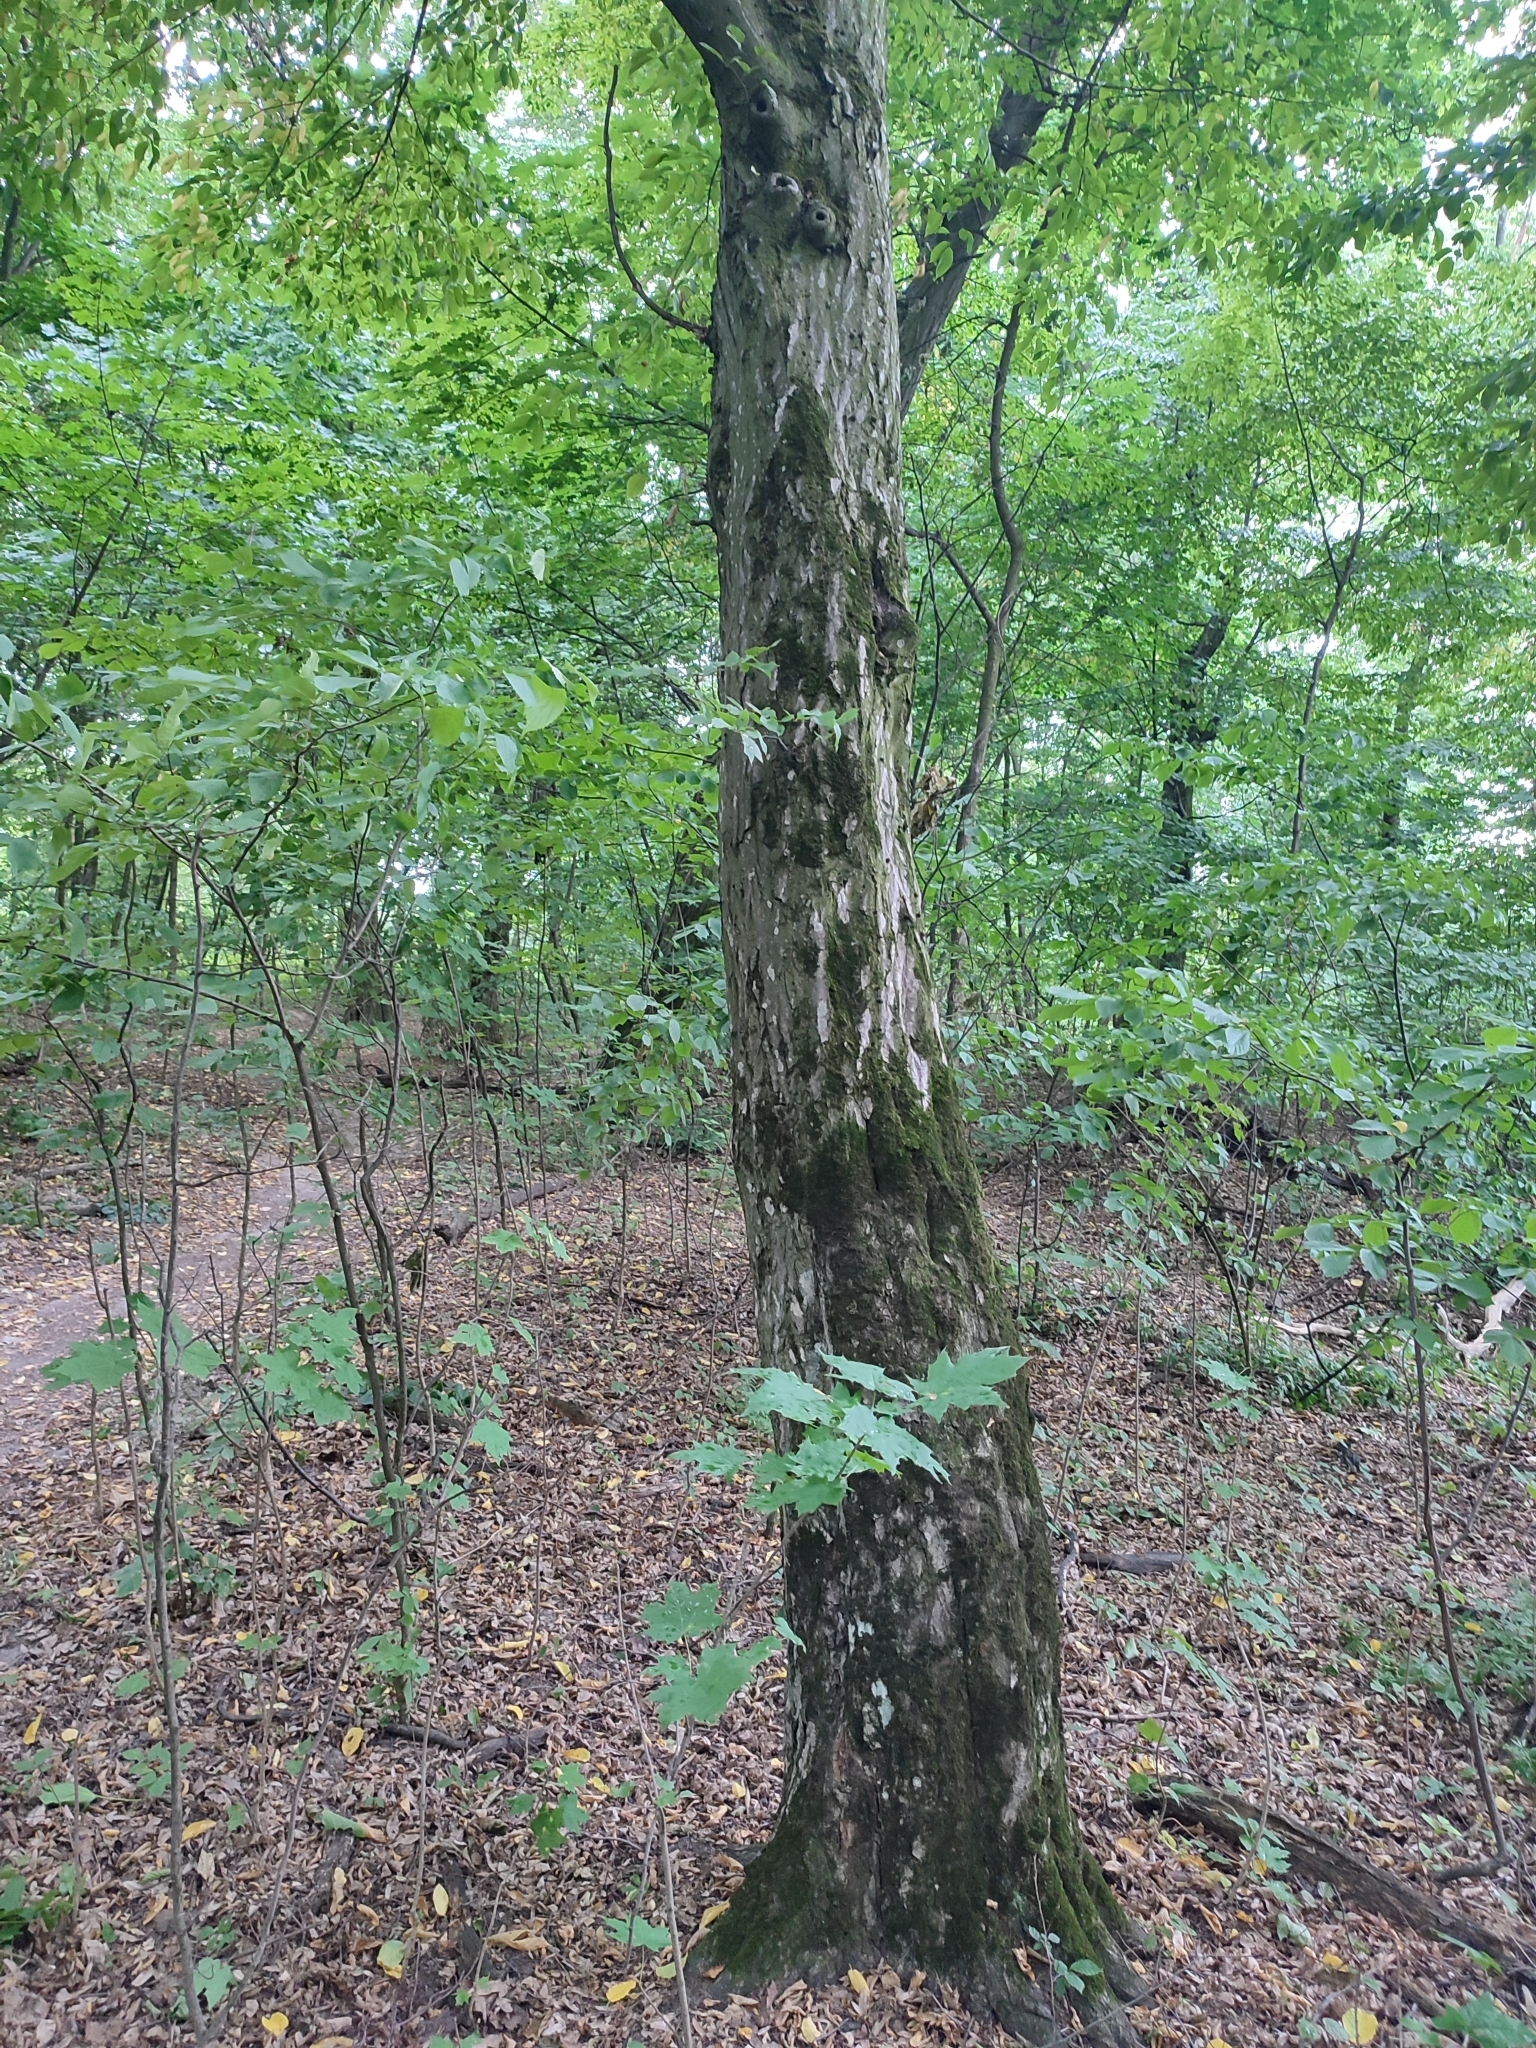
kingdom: Plantae
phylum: Tracheophyta
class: Magnoliopsida
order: Fagales
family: Betulaceae
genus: Carpinus
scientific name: Carpinus betulus
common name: Hornbeam
